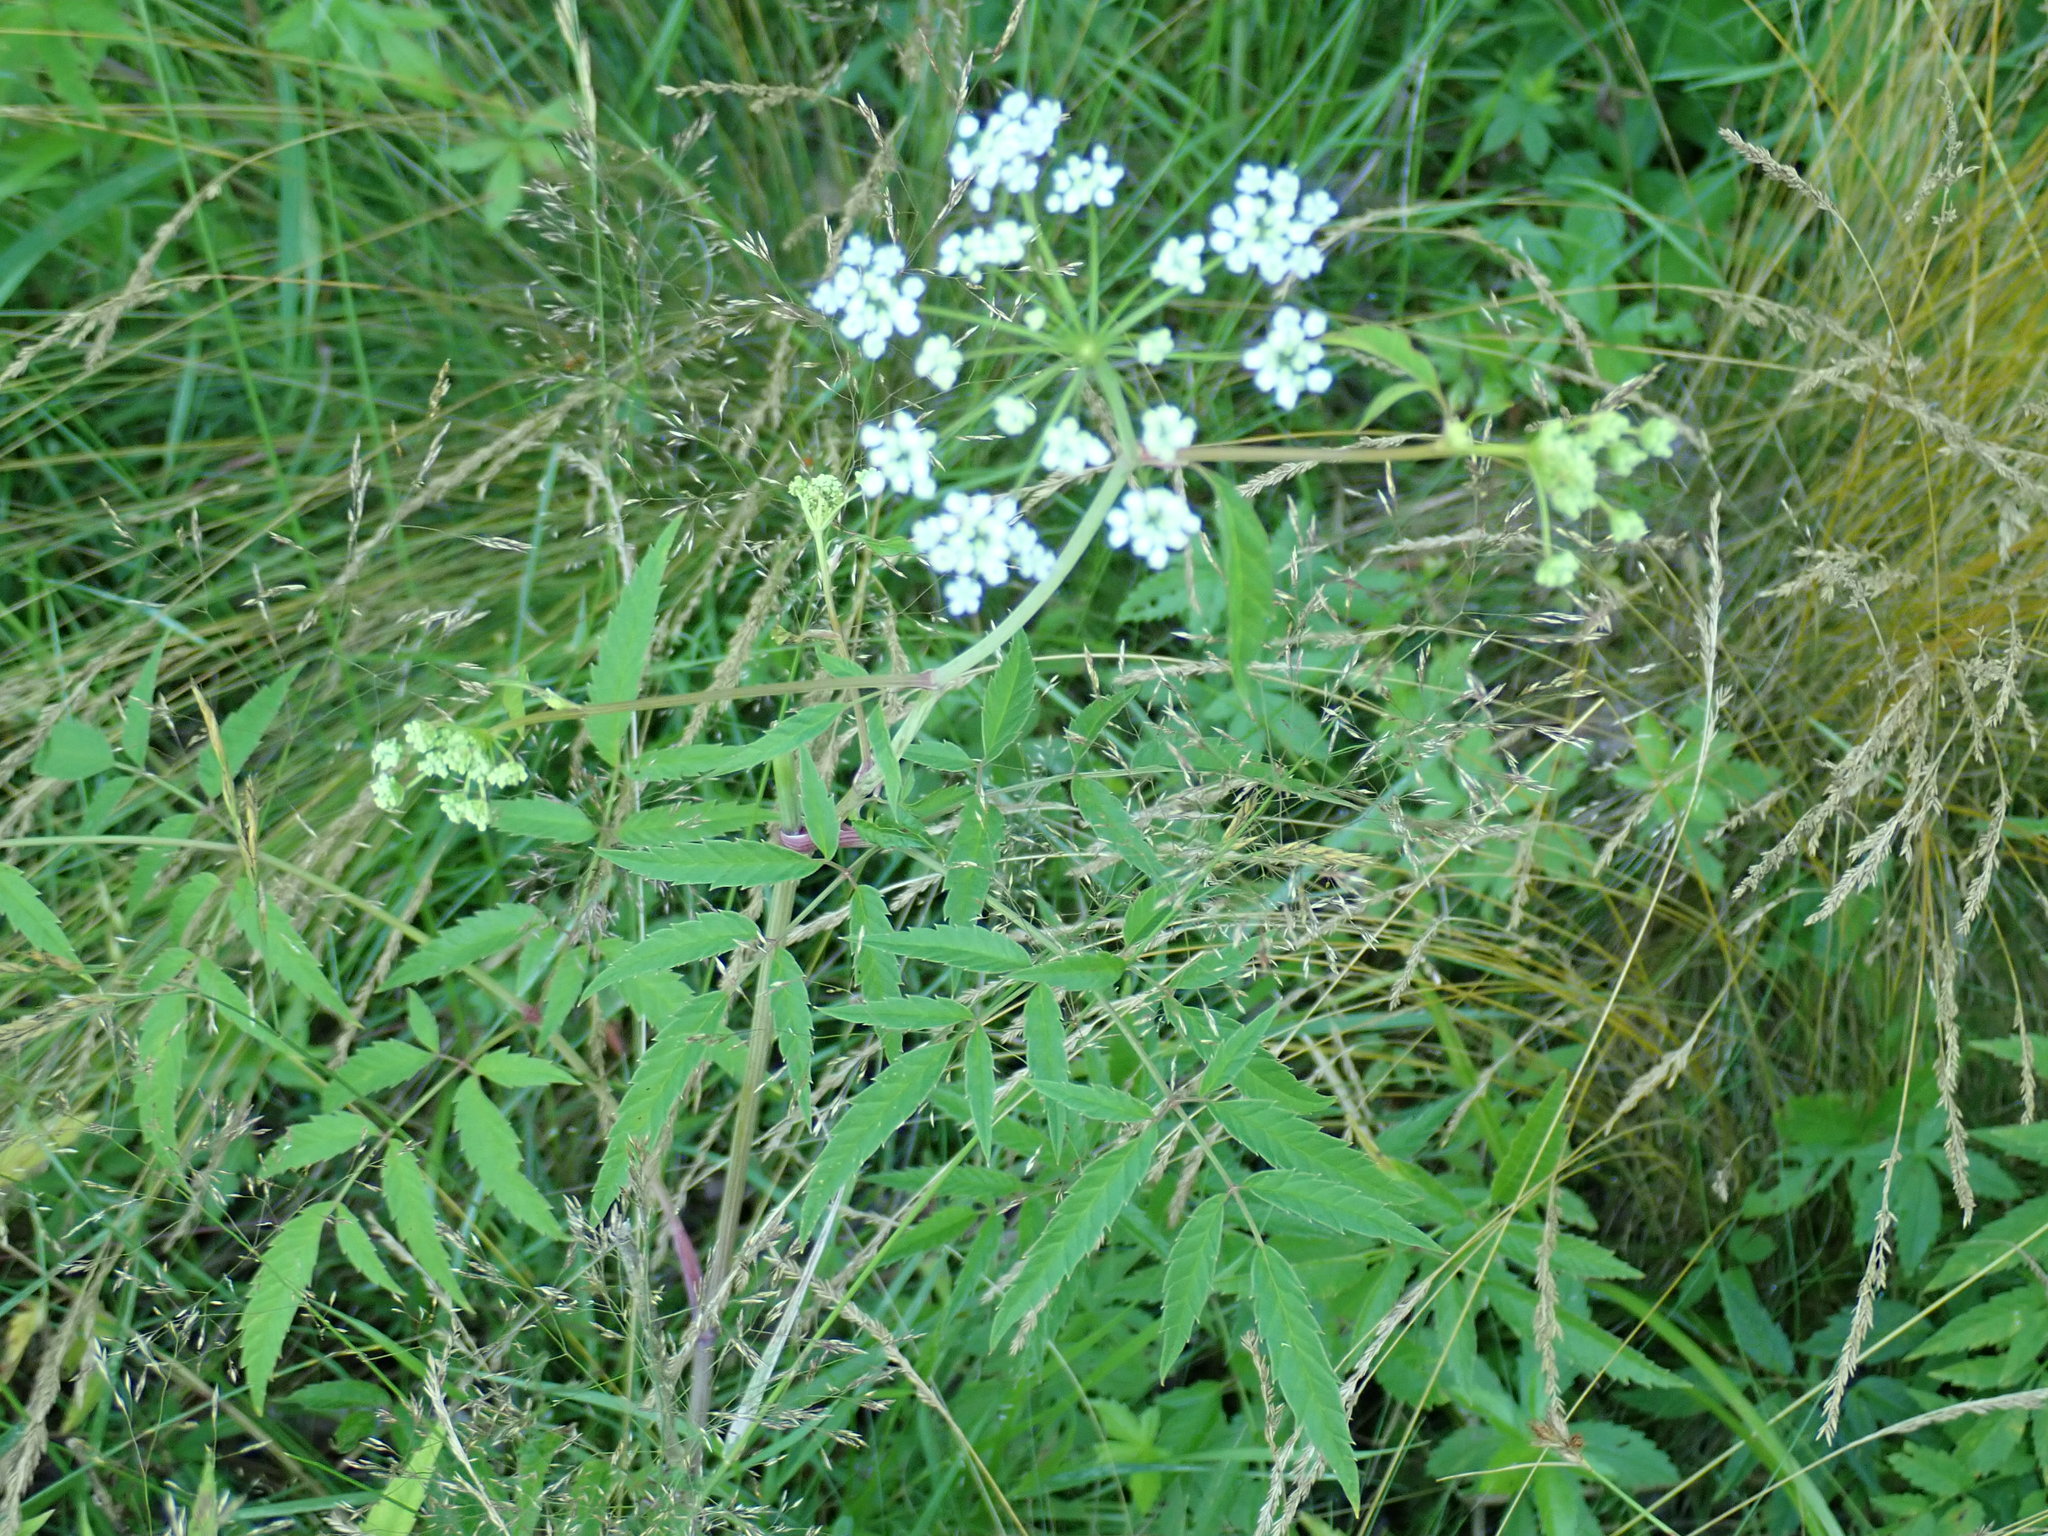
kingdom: Plantae
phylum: Tracheophyta
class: Magnoliopsida
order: Apiales
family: Apiaceae
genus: Cicuta
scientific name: Cicuta maculata
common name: Spotted cowbane
